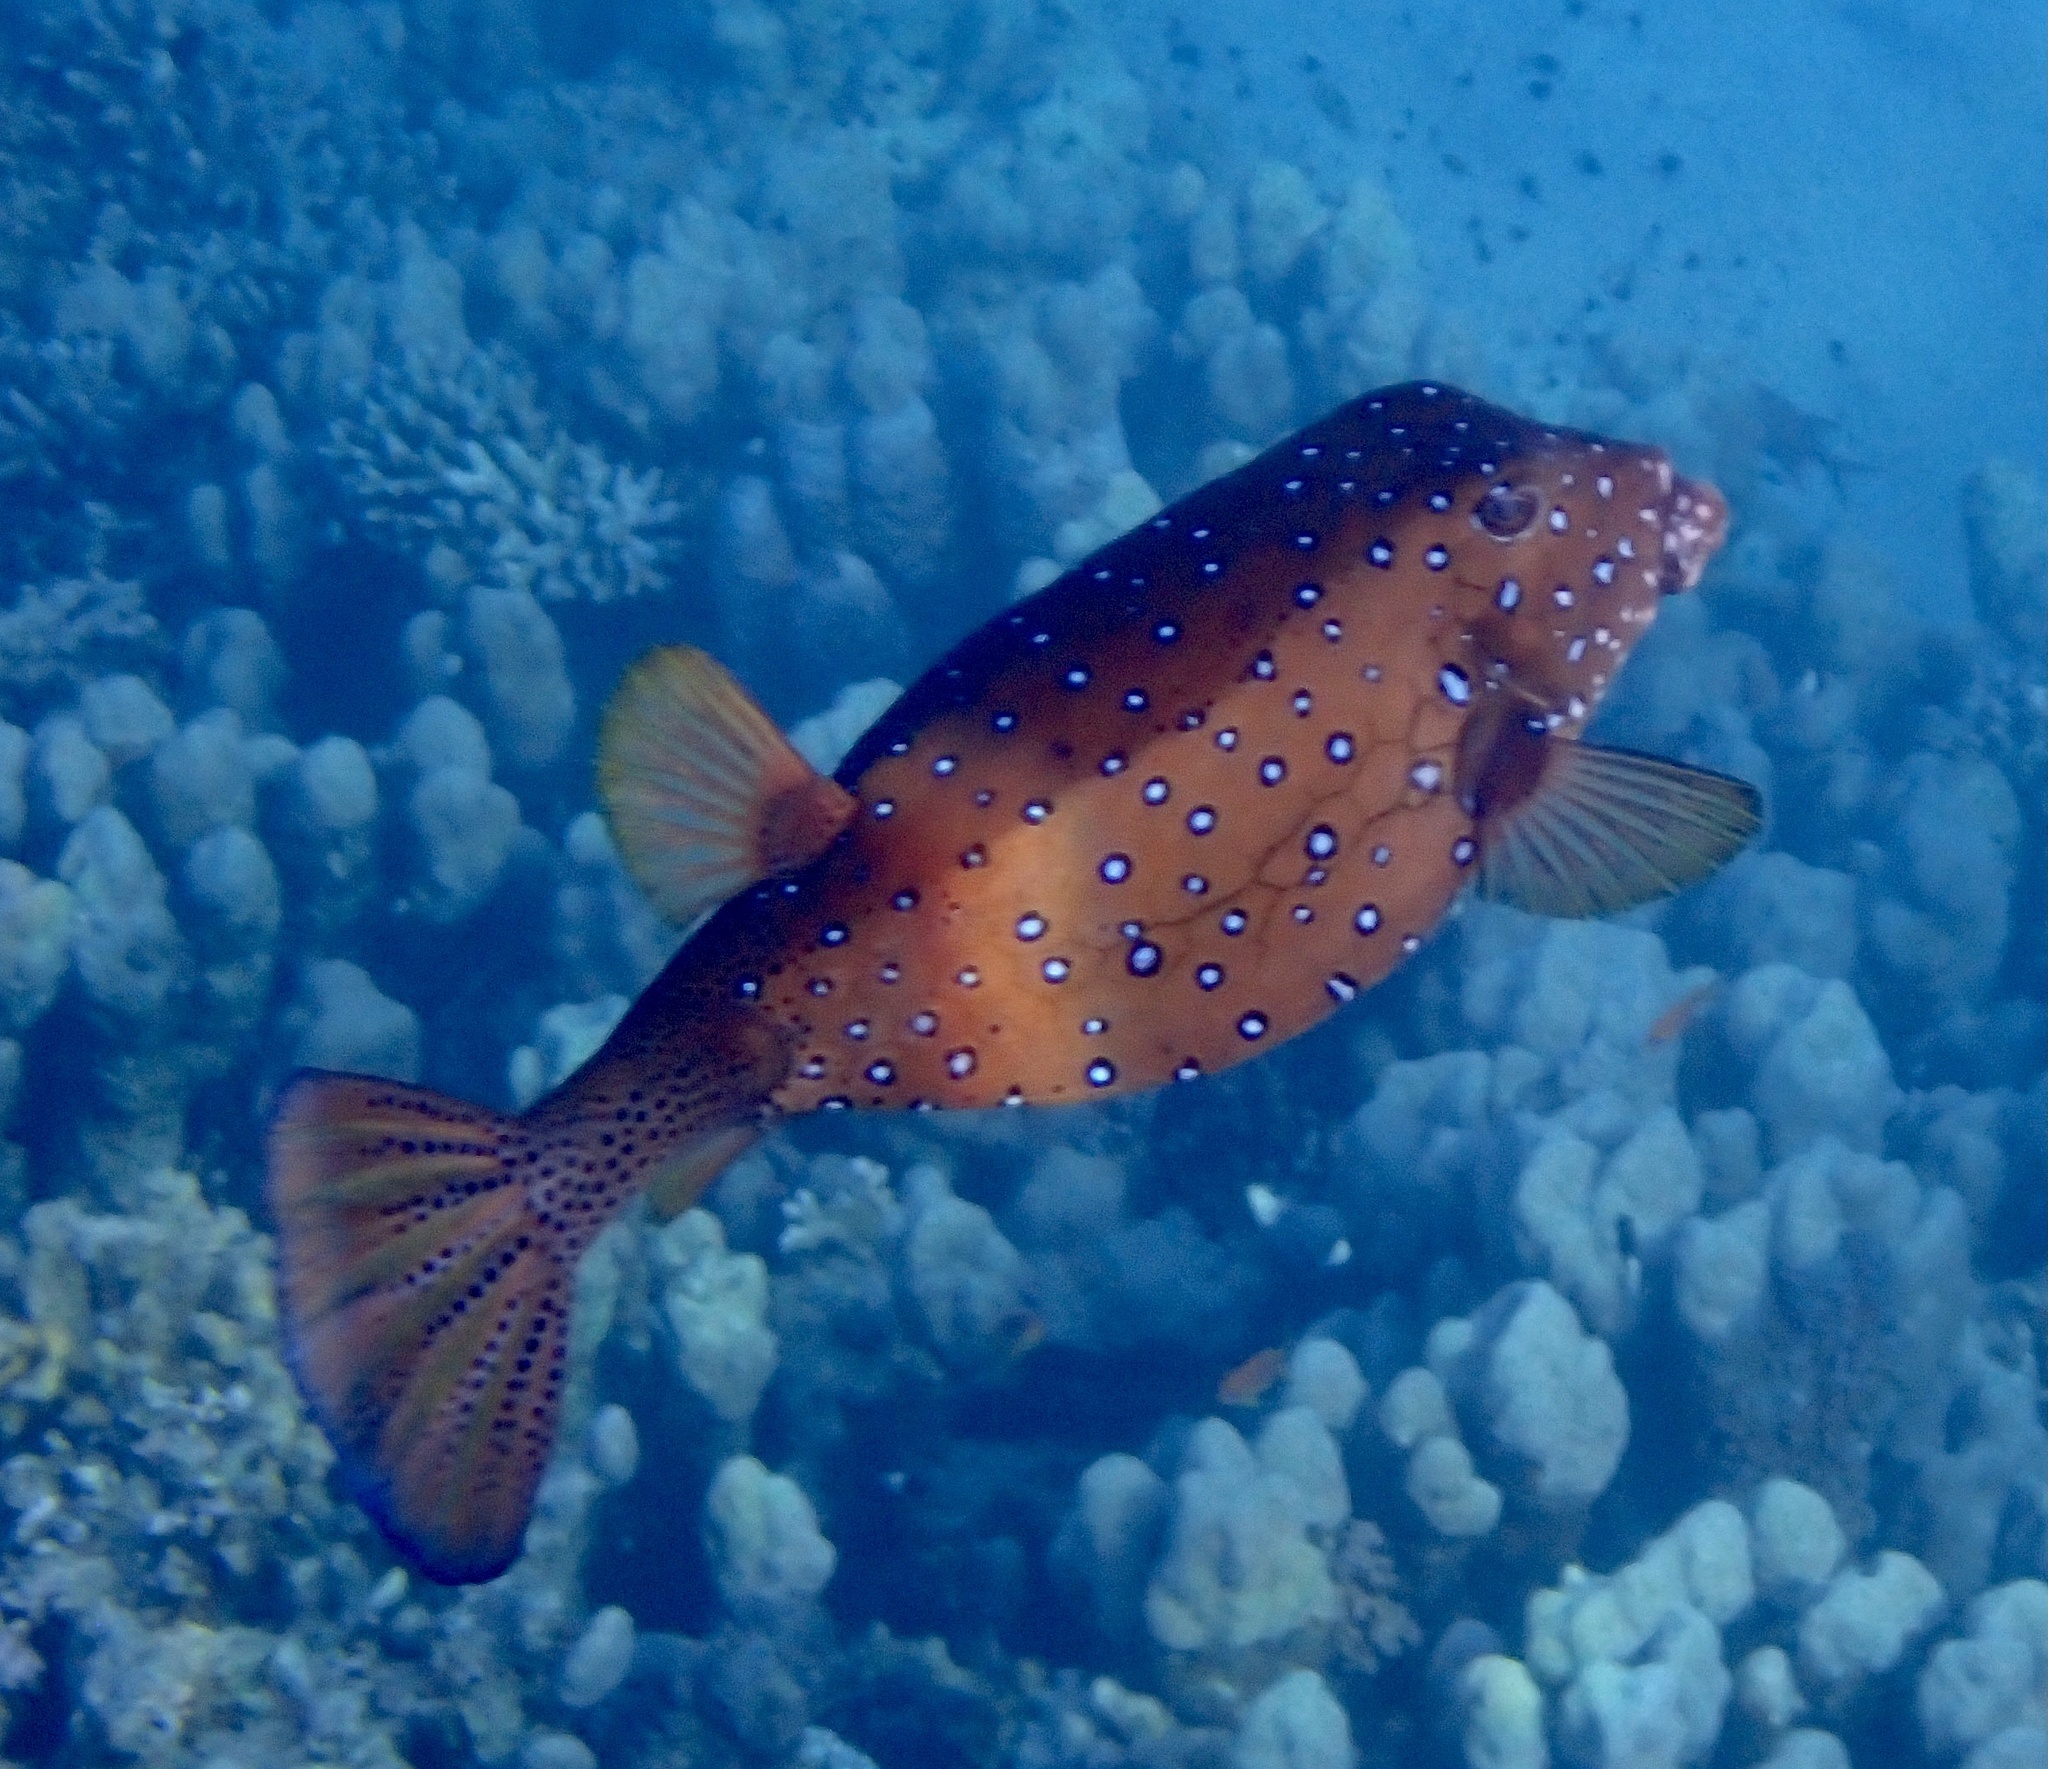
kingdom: Animalia
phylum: Chordata
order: Tetraodontiformes
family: Ostraciidae
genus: Ostracion
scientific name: Ostracion cubicus
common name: Cube trunkfish
